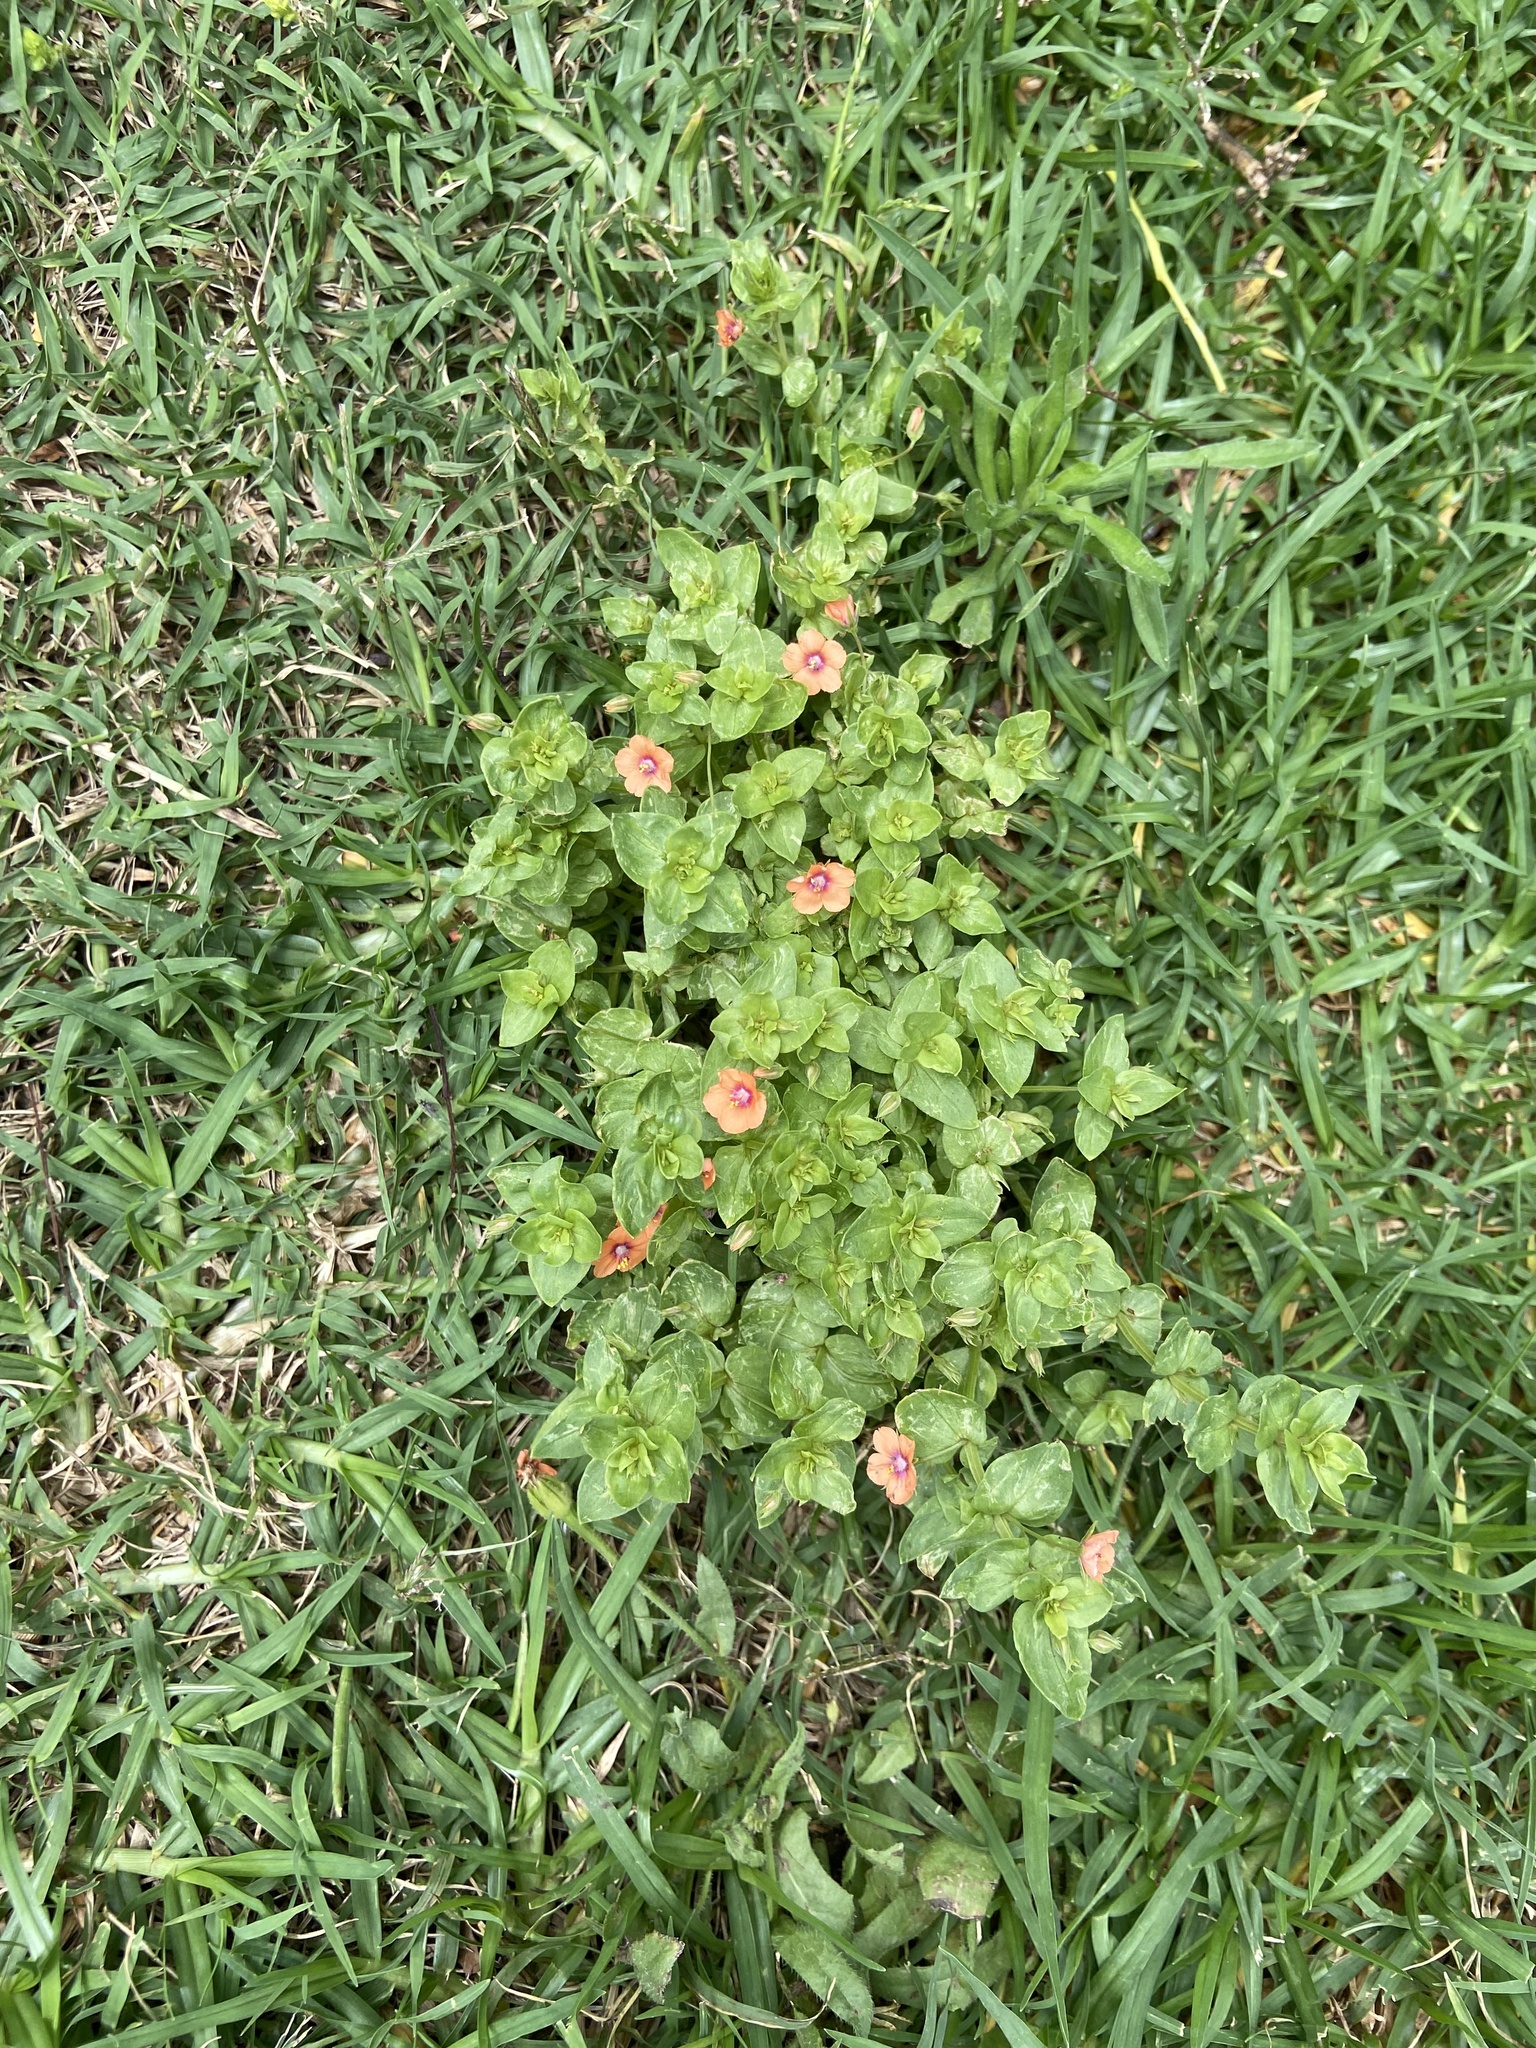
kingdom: Plantae
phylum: Tracheophyta
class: Magnoliopsida
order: Ericales
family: Primulaceae
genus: Lysimachia
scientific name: Lysimachia arvensis
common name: Scarlet pimpernel
